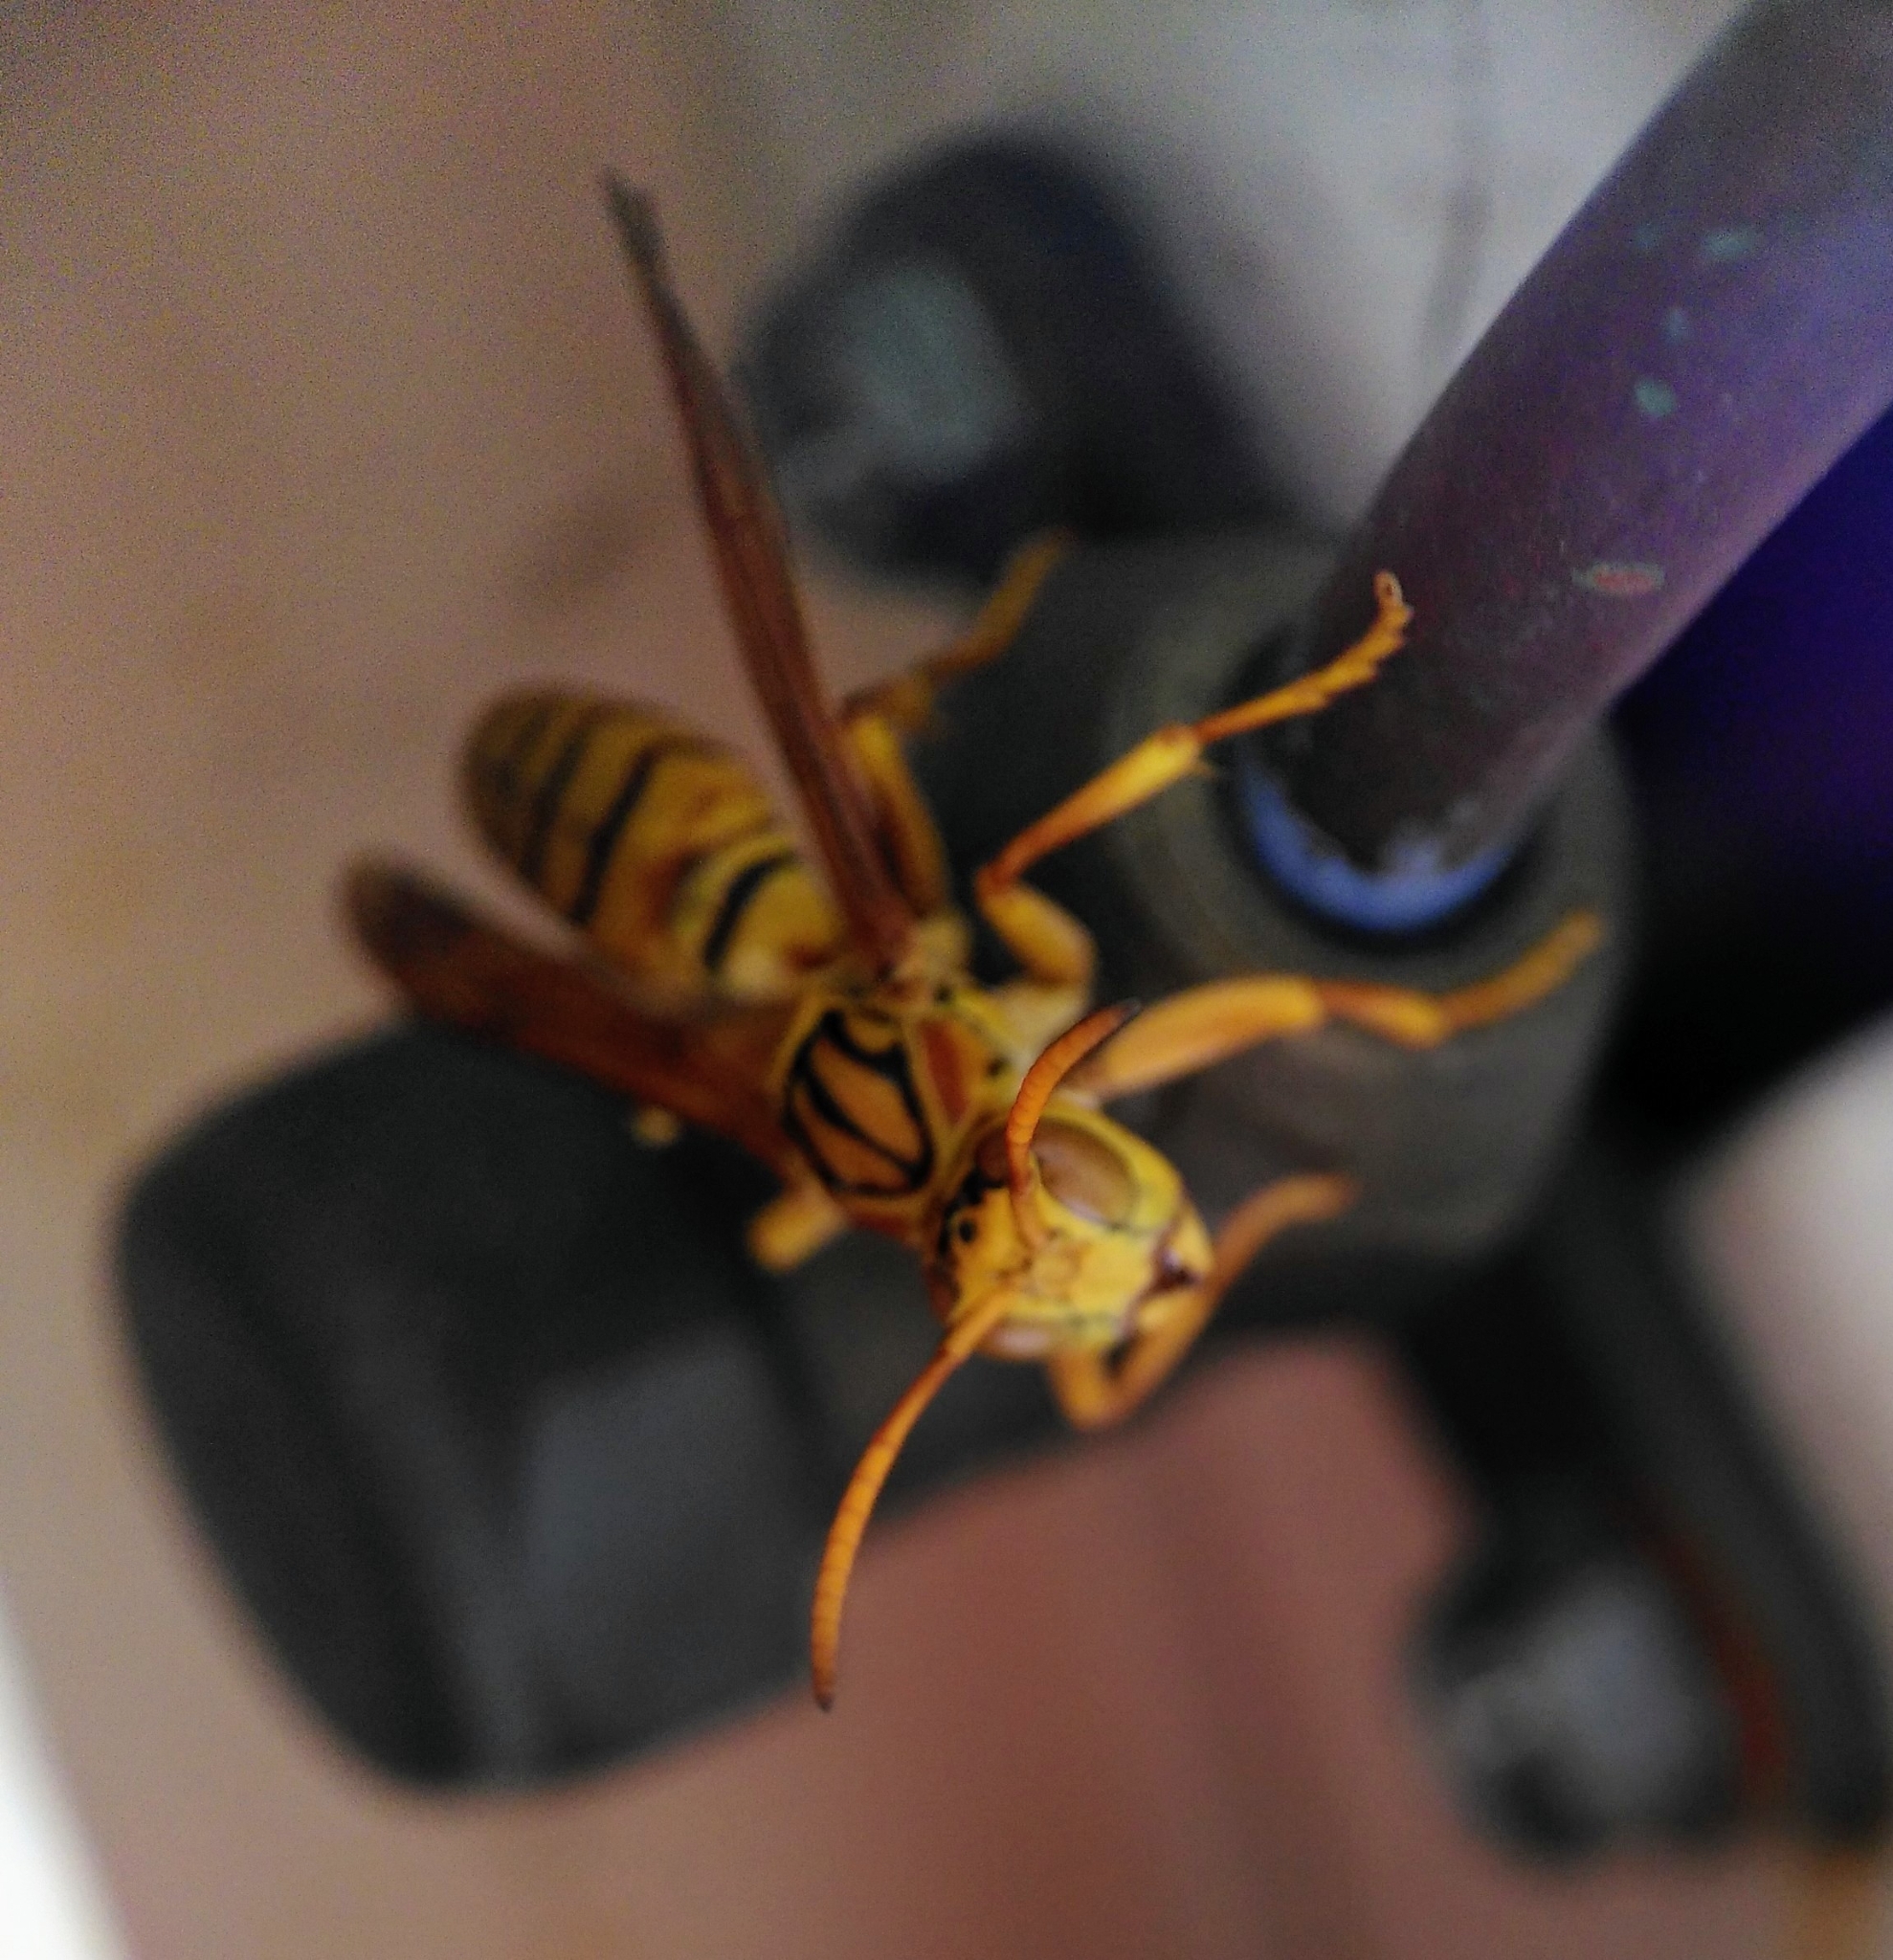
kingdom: Animalia
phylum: Arthropoda
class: Insecta
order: Hymenoptera
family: Eumenidae
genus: Polistes
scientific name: Polistes olivaceus
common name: Paper wasp
